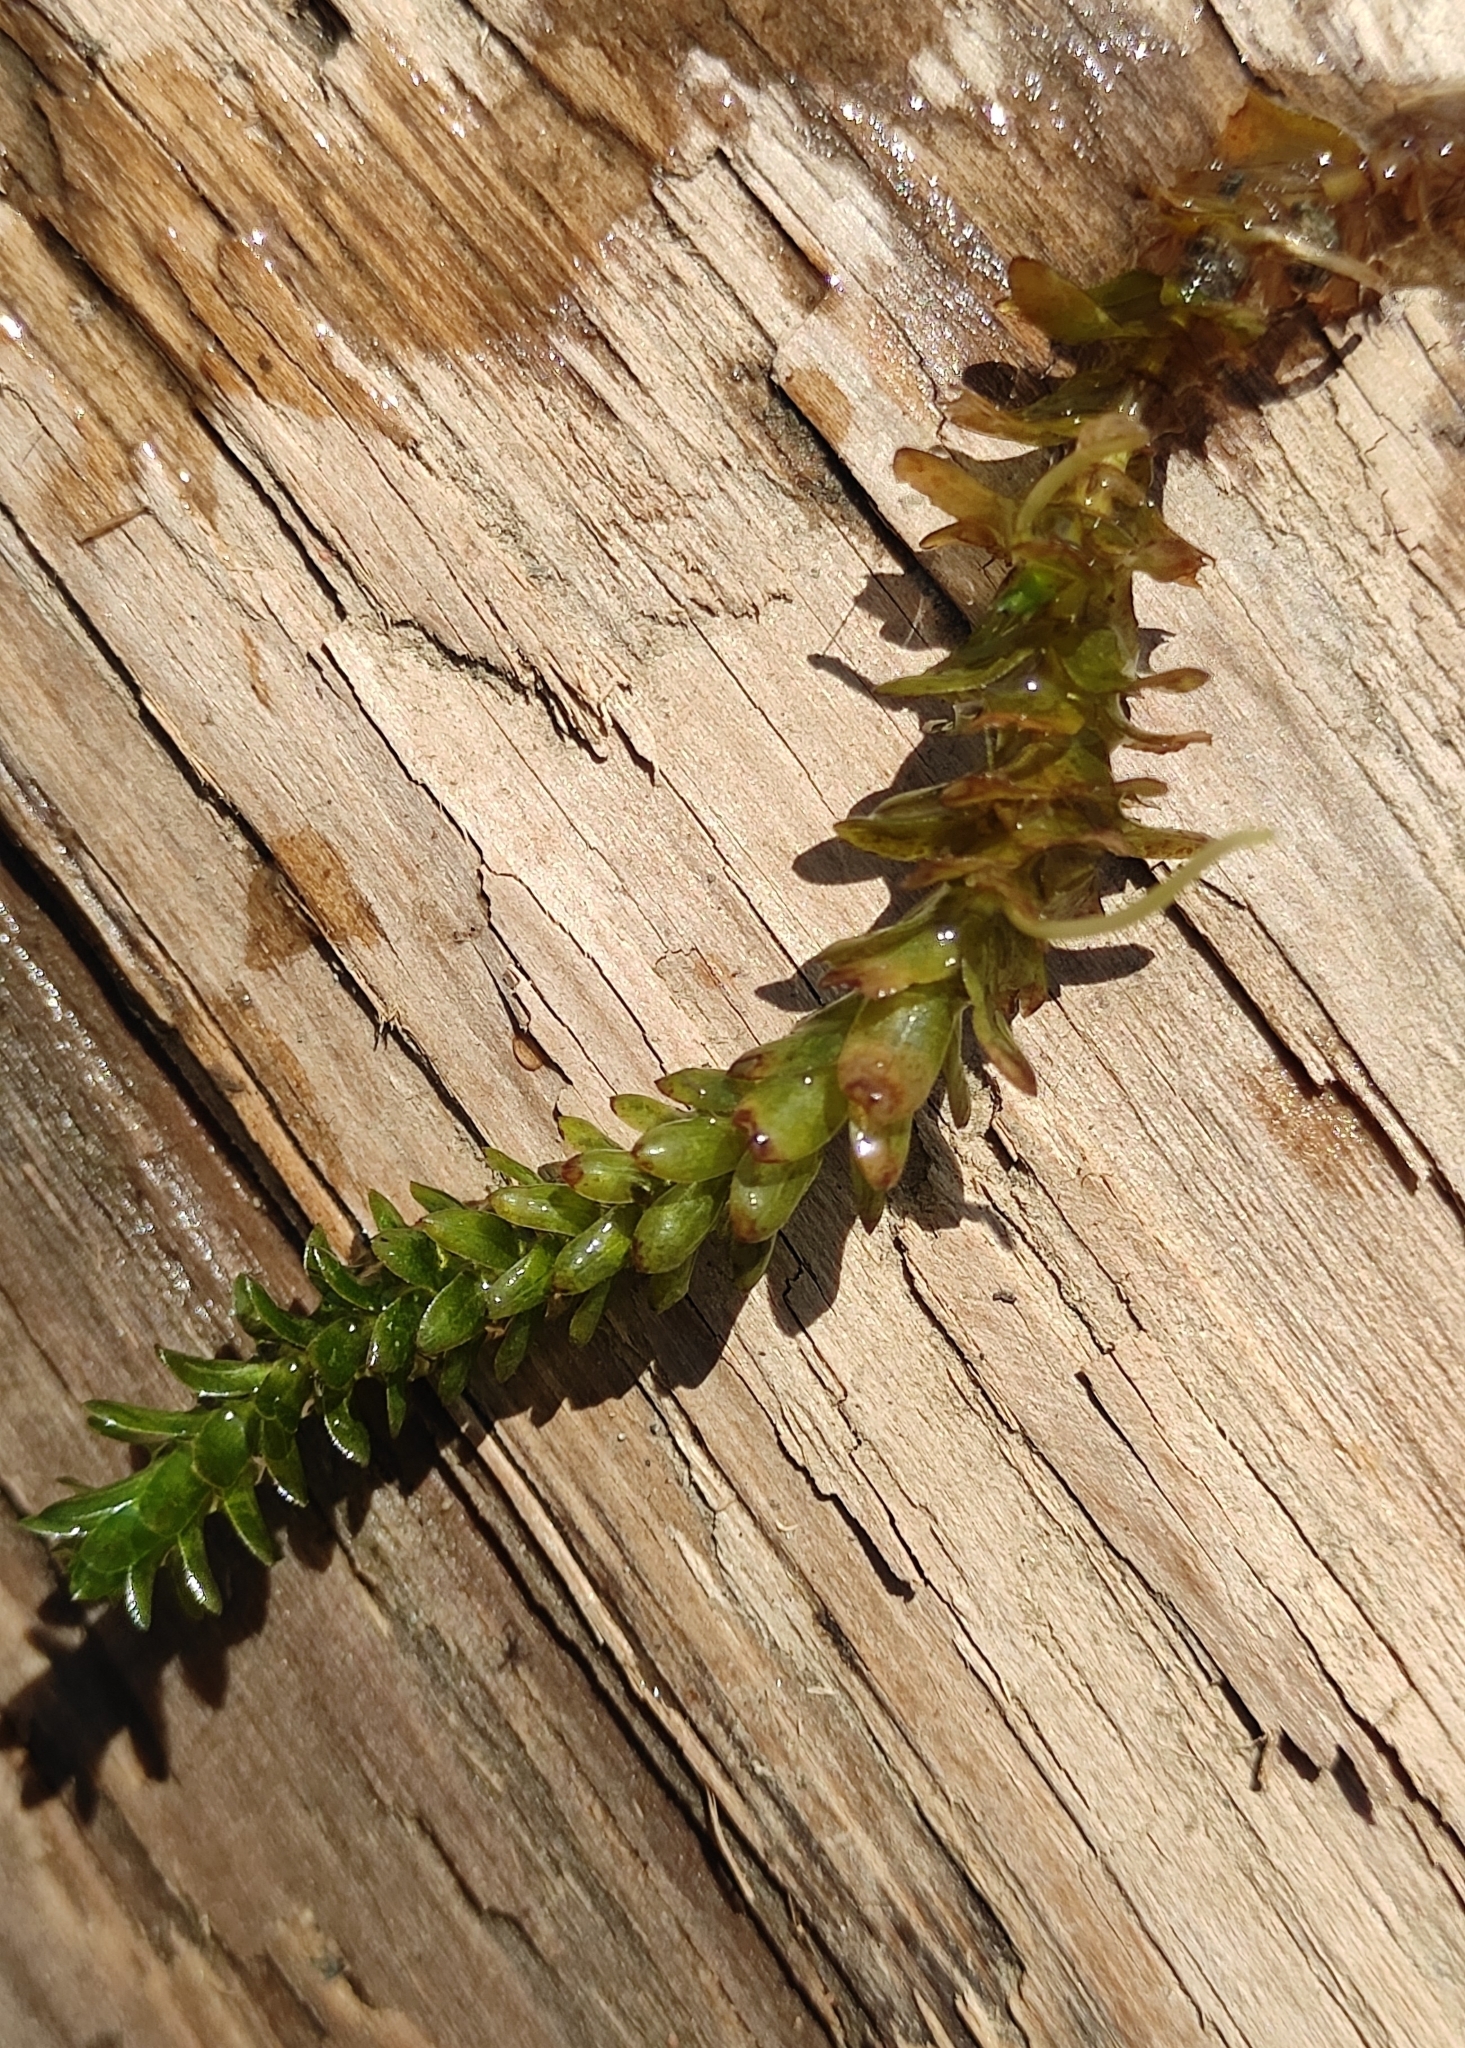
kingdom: Plantae
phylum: Tracheophyta
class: Liliopsida
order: Alismatales
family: Hydrocharitaceae
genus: Elodea
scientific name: Elodea canadensis
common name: Canadian waterweed
